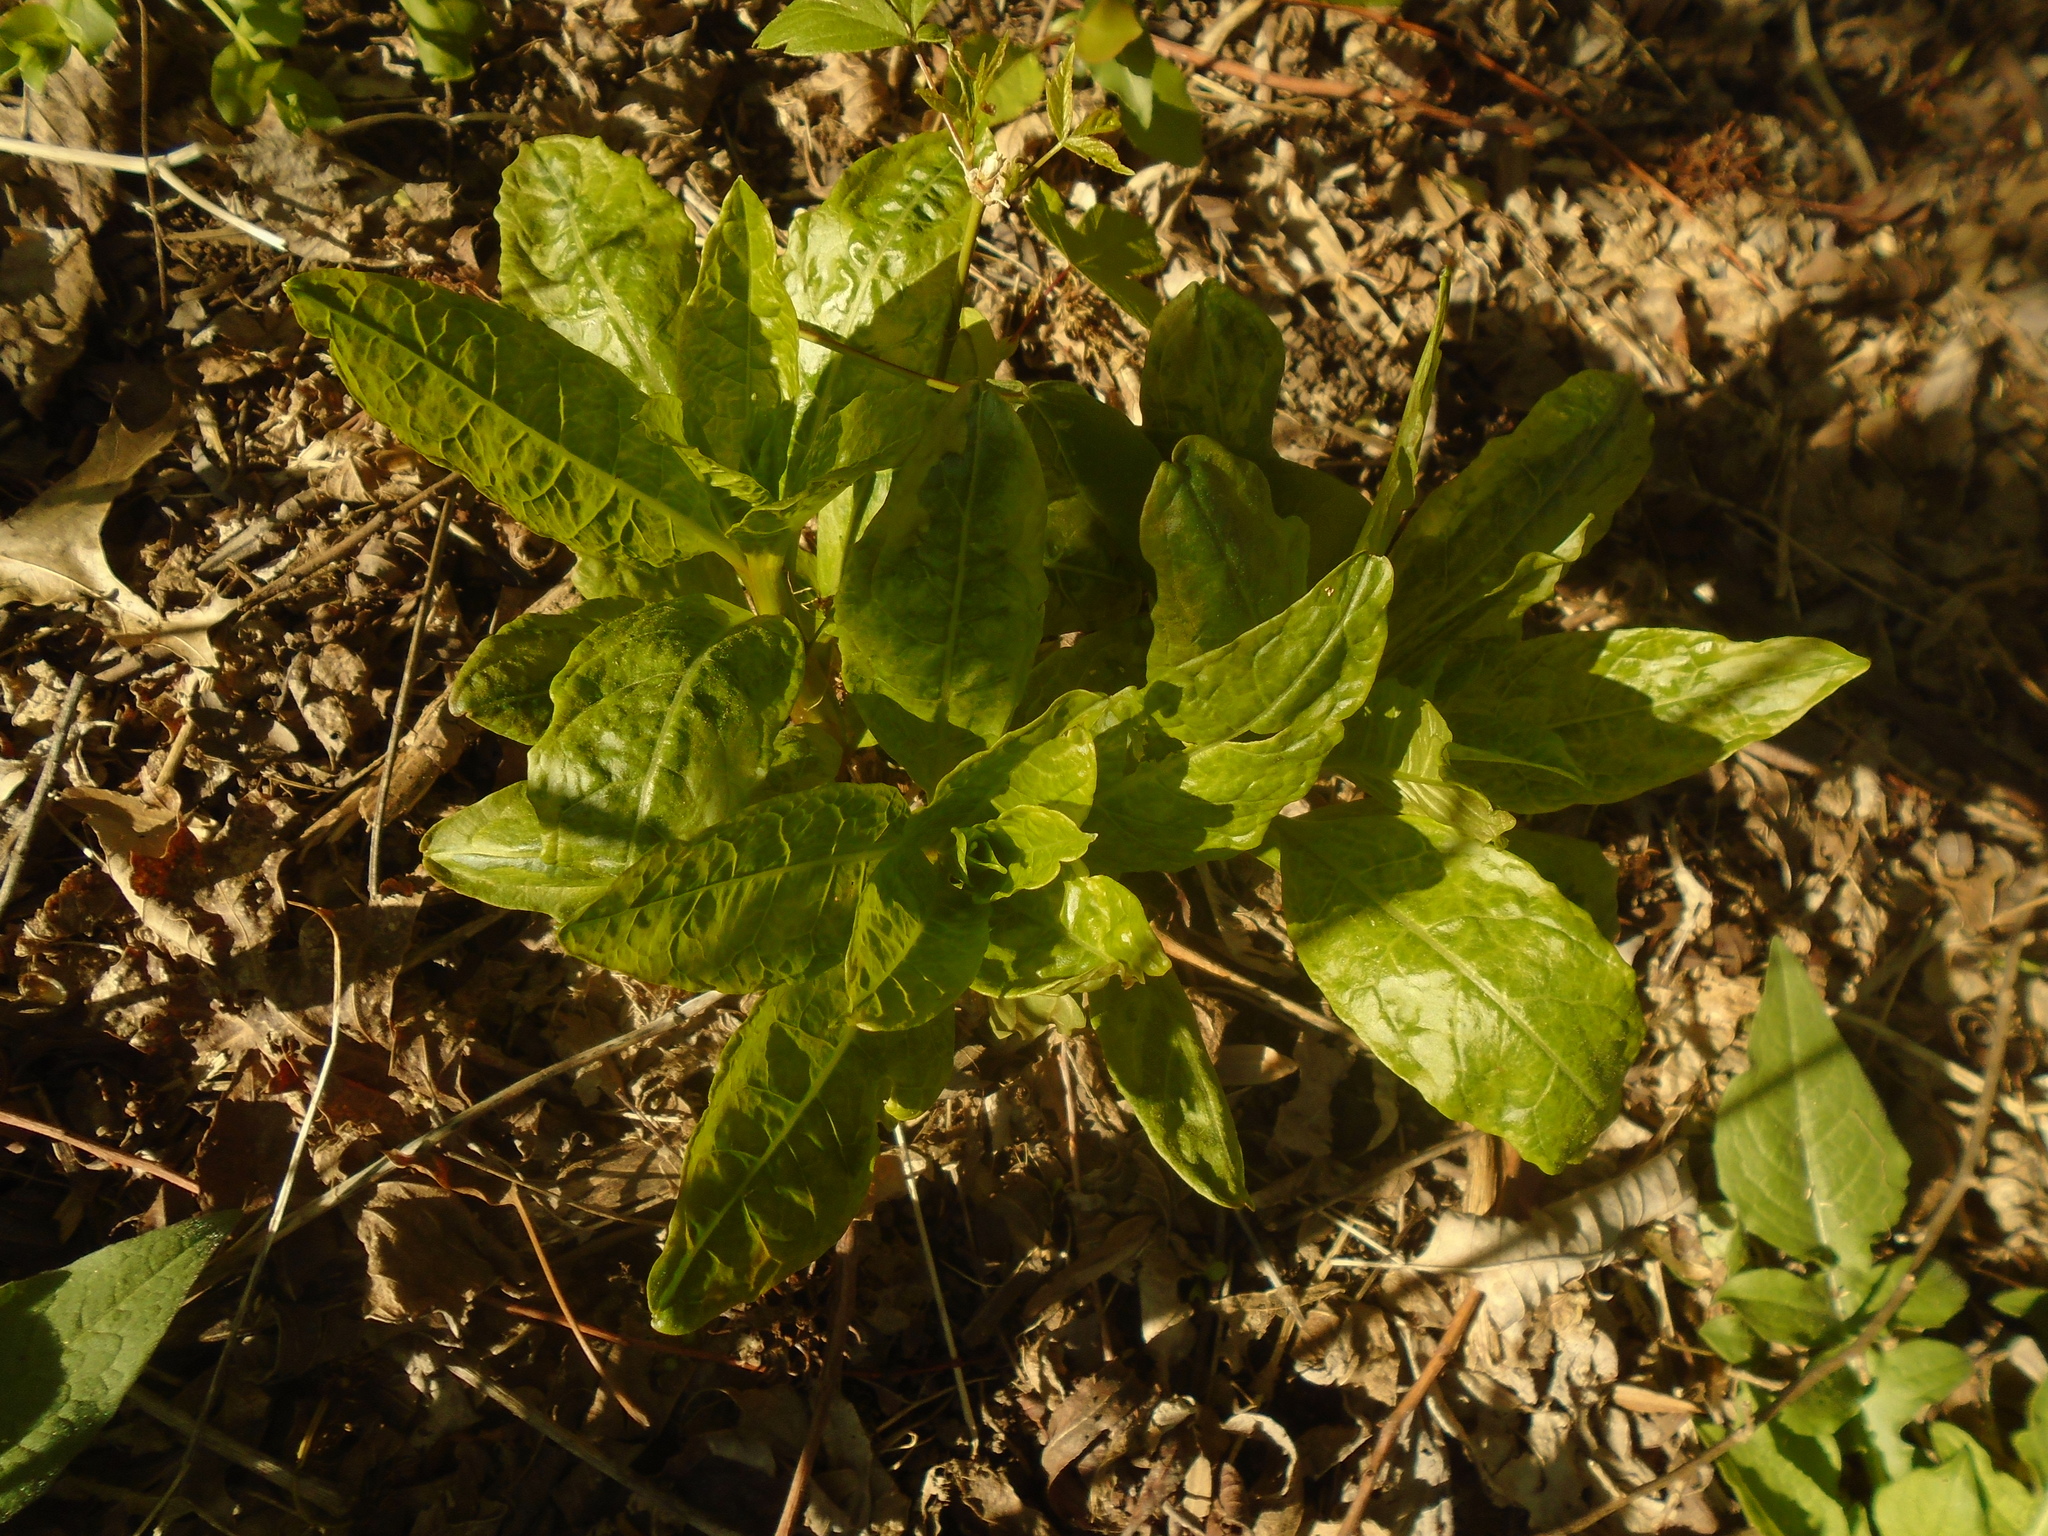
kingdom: Plantae
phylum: Tracheophyta
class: Magnoliopsida
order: Caryophyllales
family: Phytolaccaceae
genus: Phytolacca
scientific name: Phytolacca americana
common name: American pokeweed
